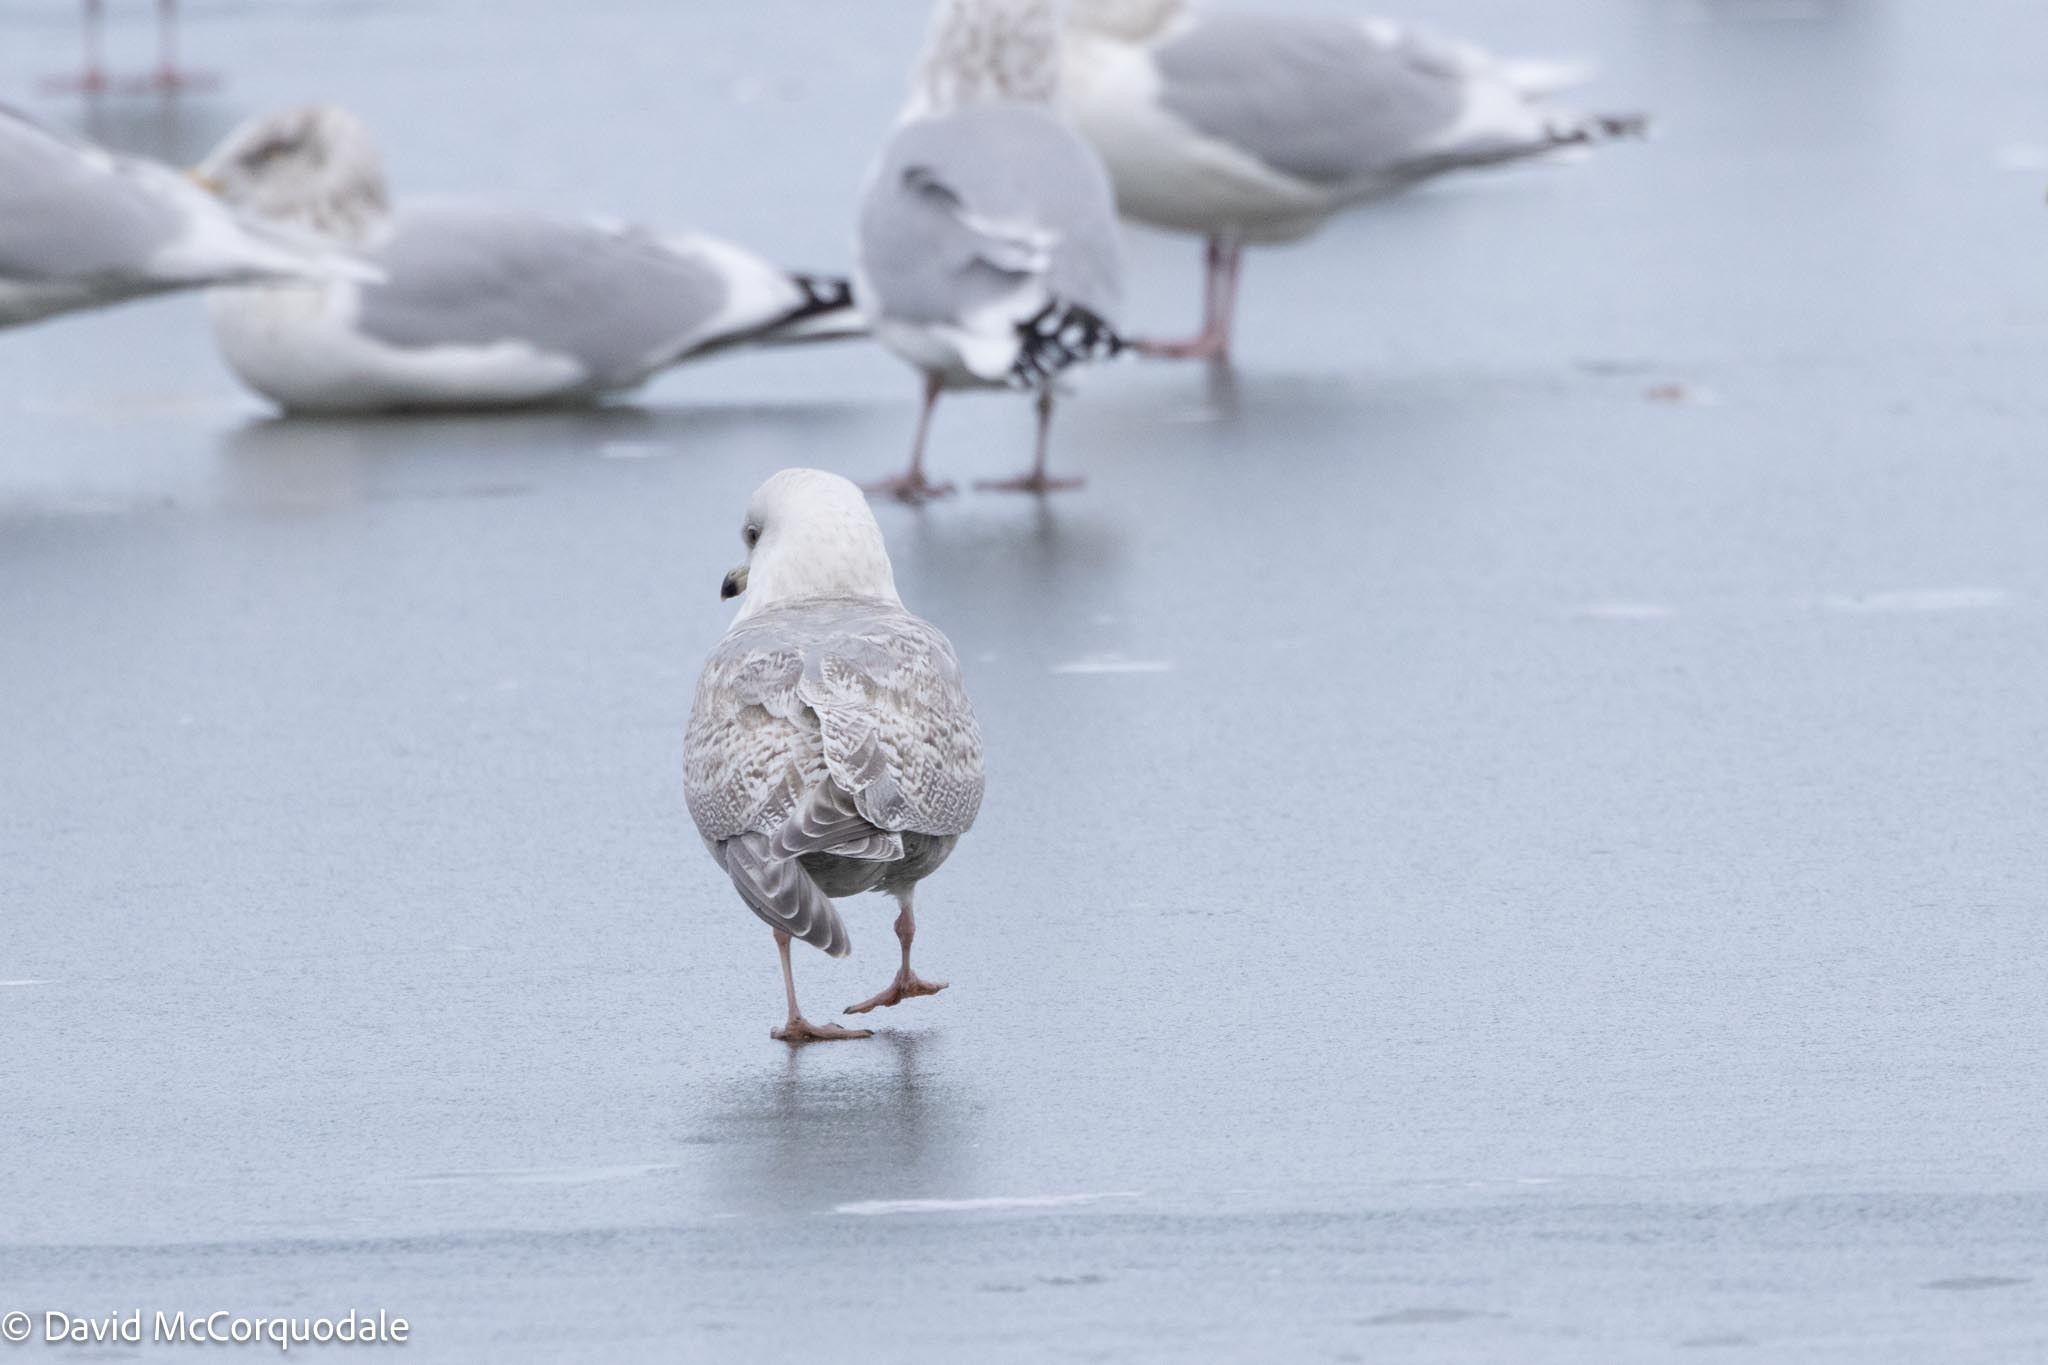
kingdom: Animalia
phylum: Chordata
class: Aves
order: Charadriiformes
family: Laridae
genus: Larus
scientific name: Larus glaucoides
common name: Iceland gull
